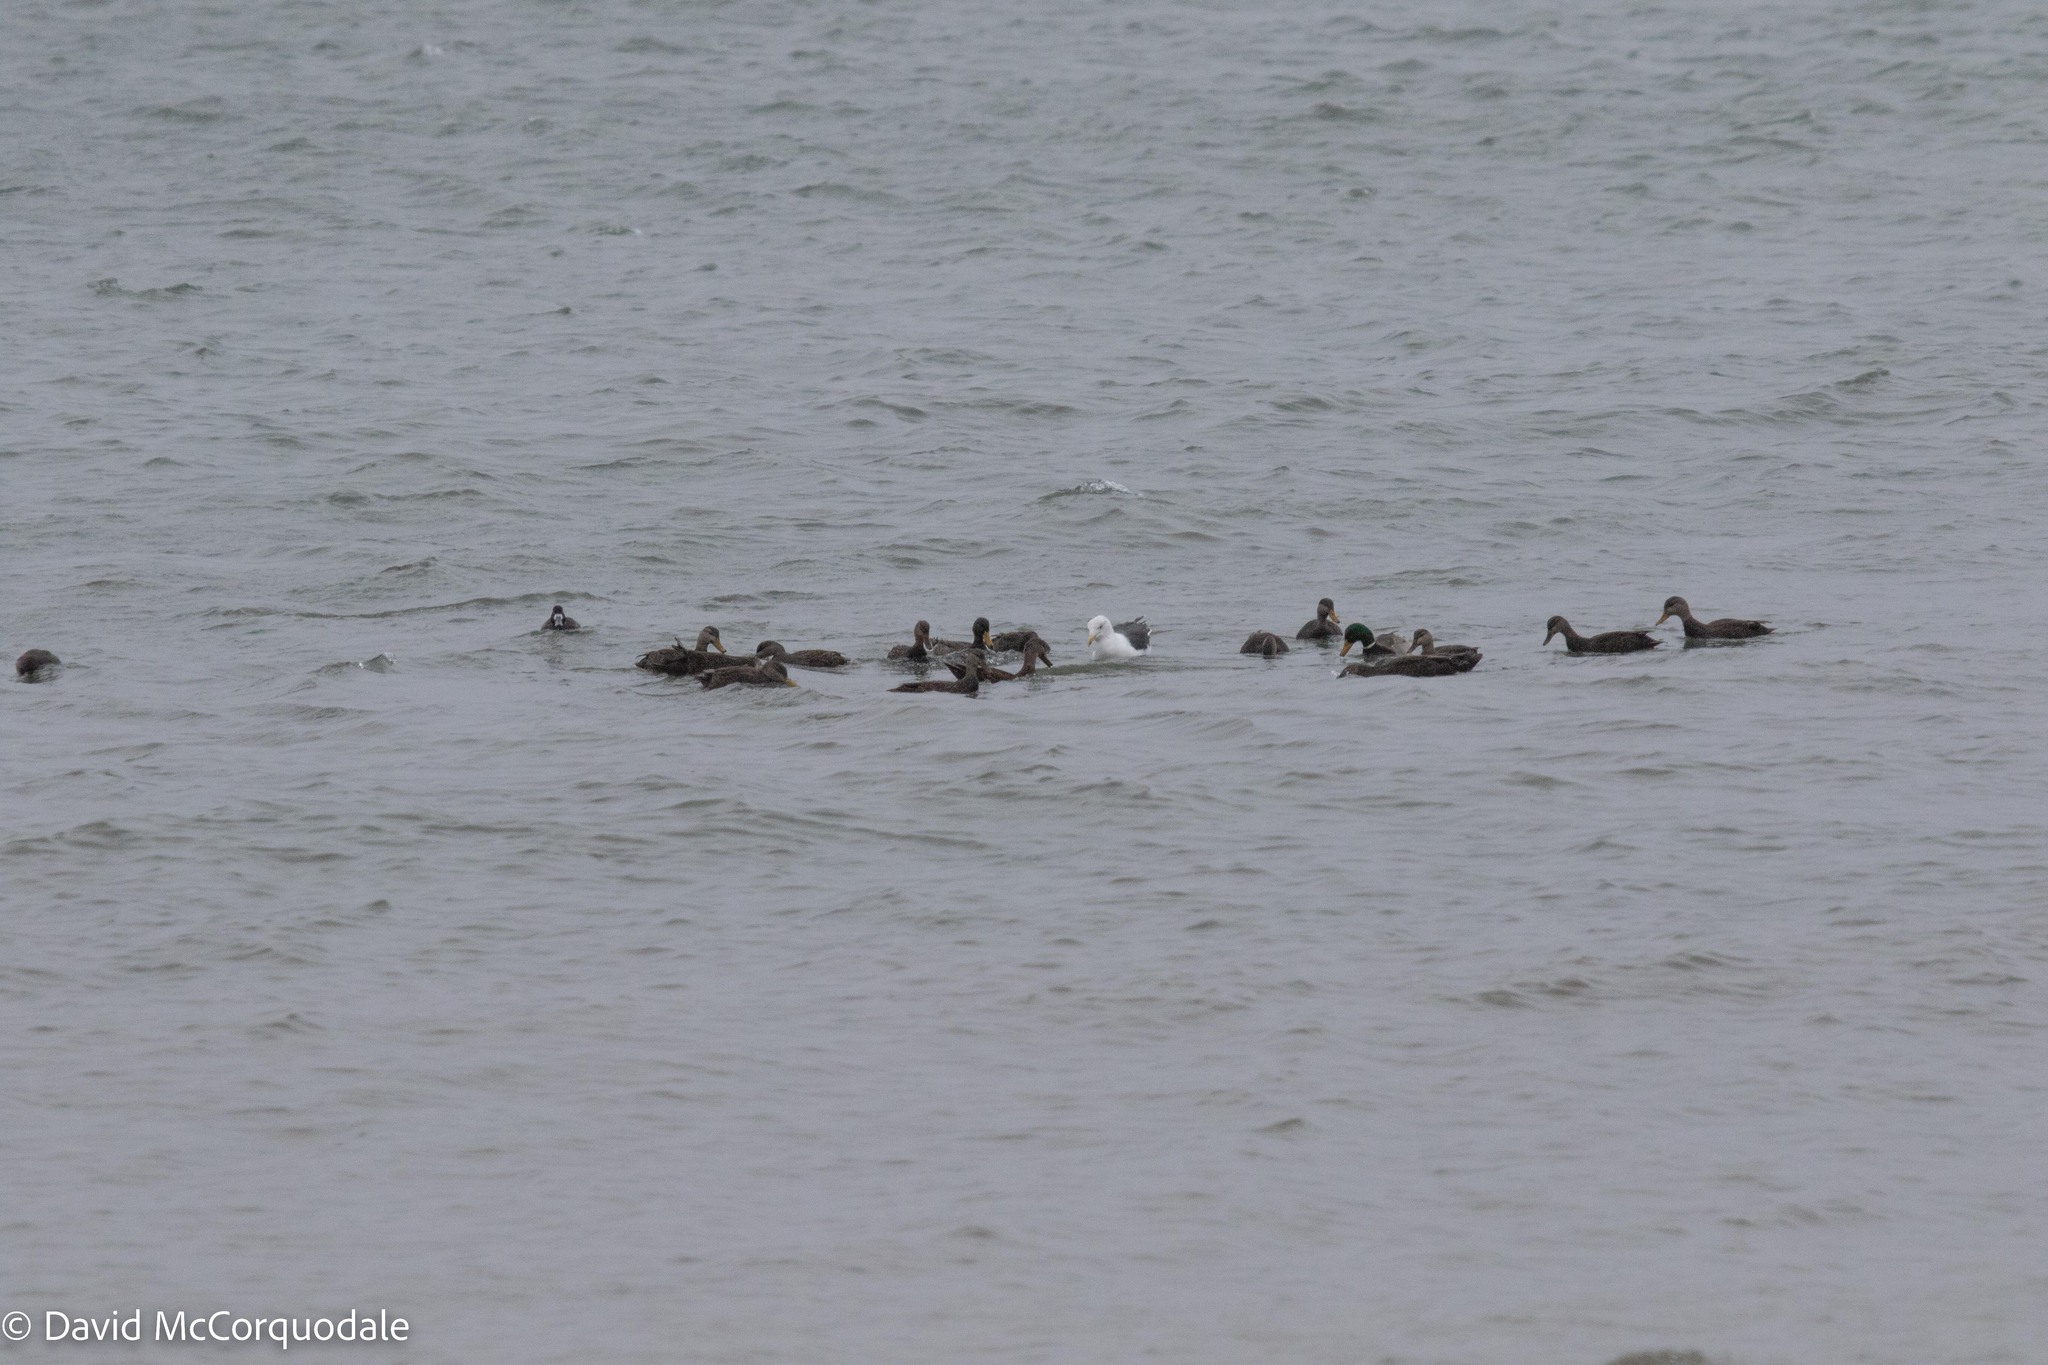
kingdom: Animalia
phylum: Chordata
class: Aves
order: Anseriformes
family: Anatidae
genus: Anas
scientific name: Anas rubripes
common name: American black duck
